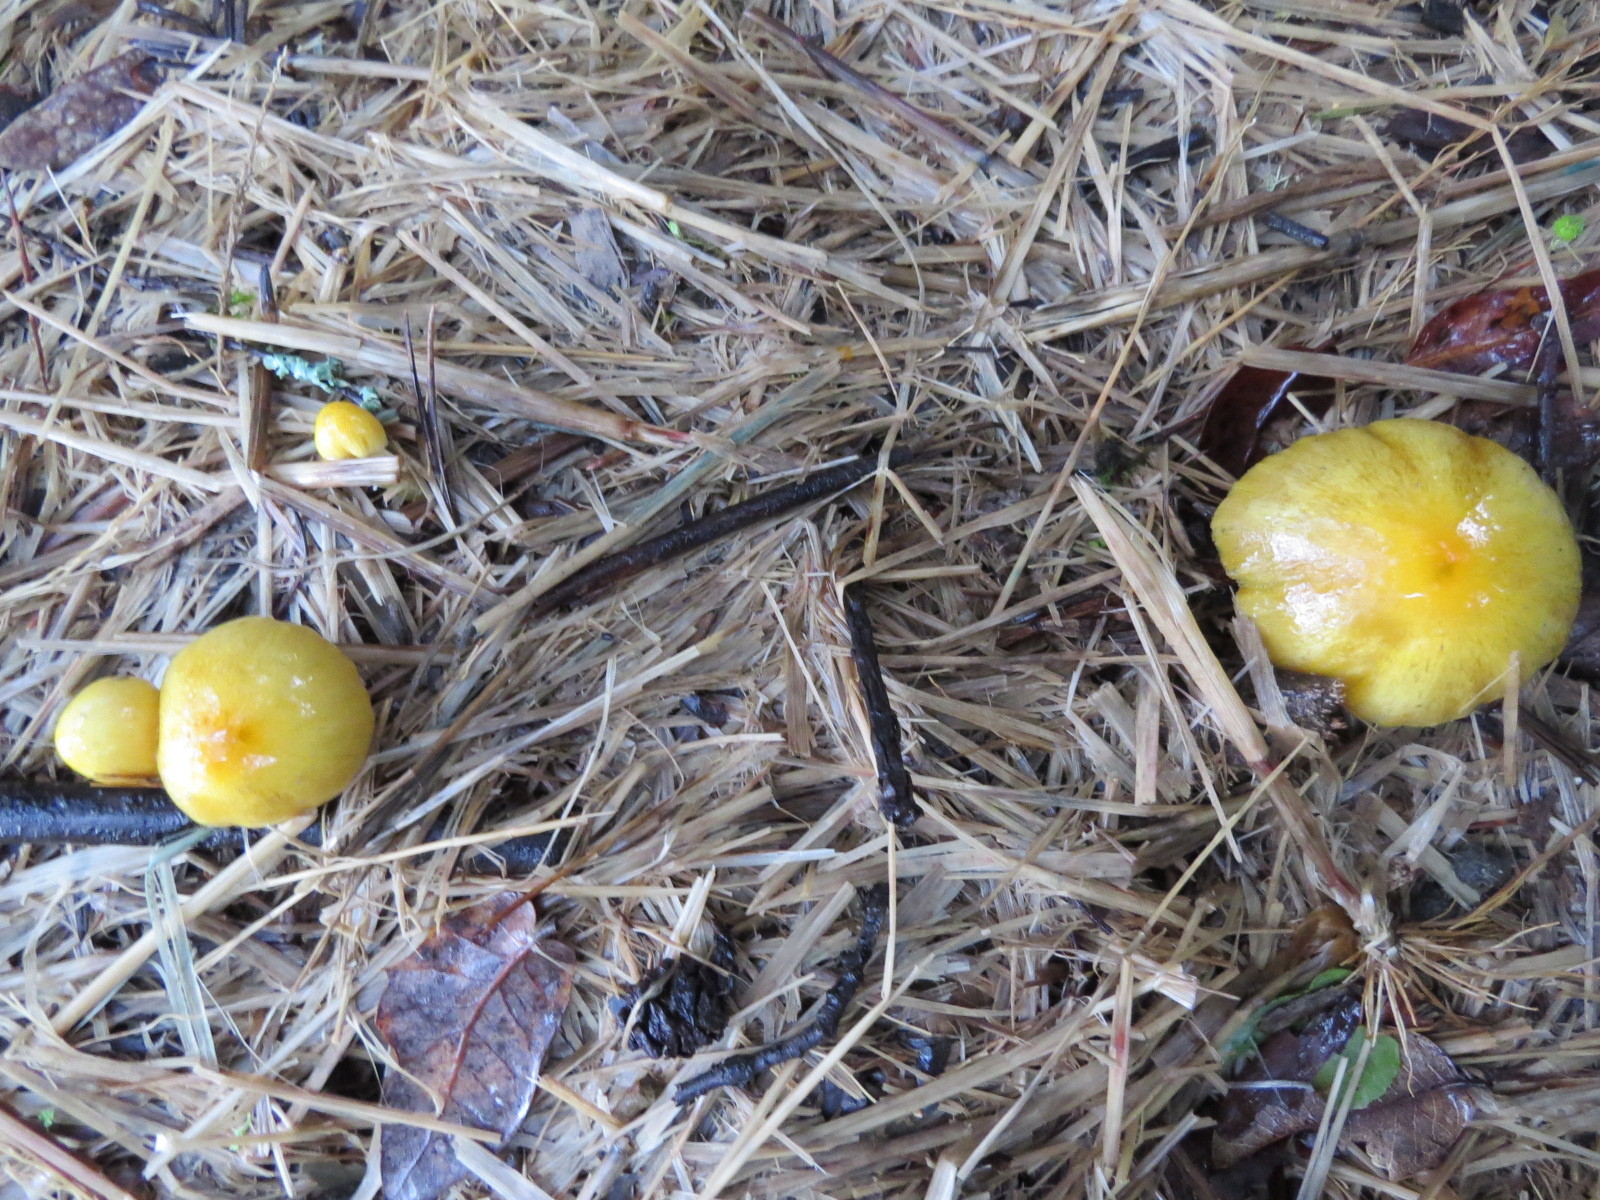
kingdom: Fungi
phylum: Basidiomycota
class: Agaricomycetes
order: Agaricales
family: Bolbitiaceae
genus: Bolbitius
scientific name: Bolbitius titubans
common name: Yellow fieldcap
